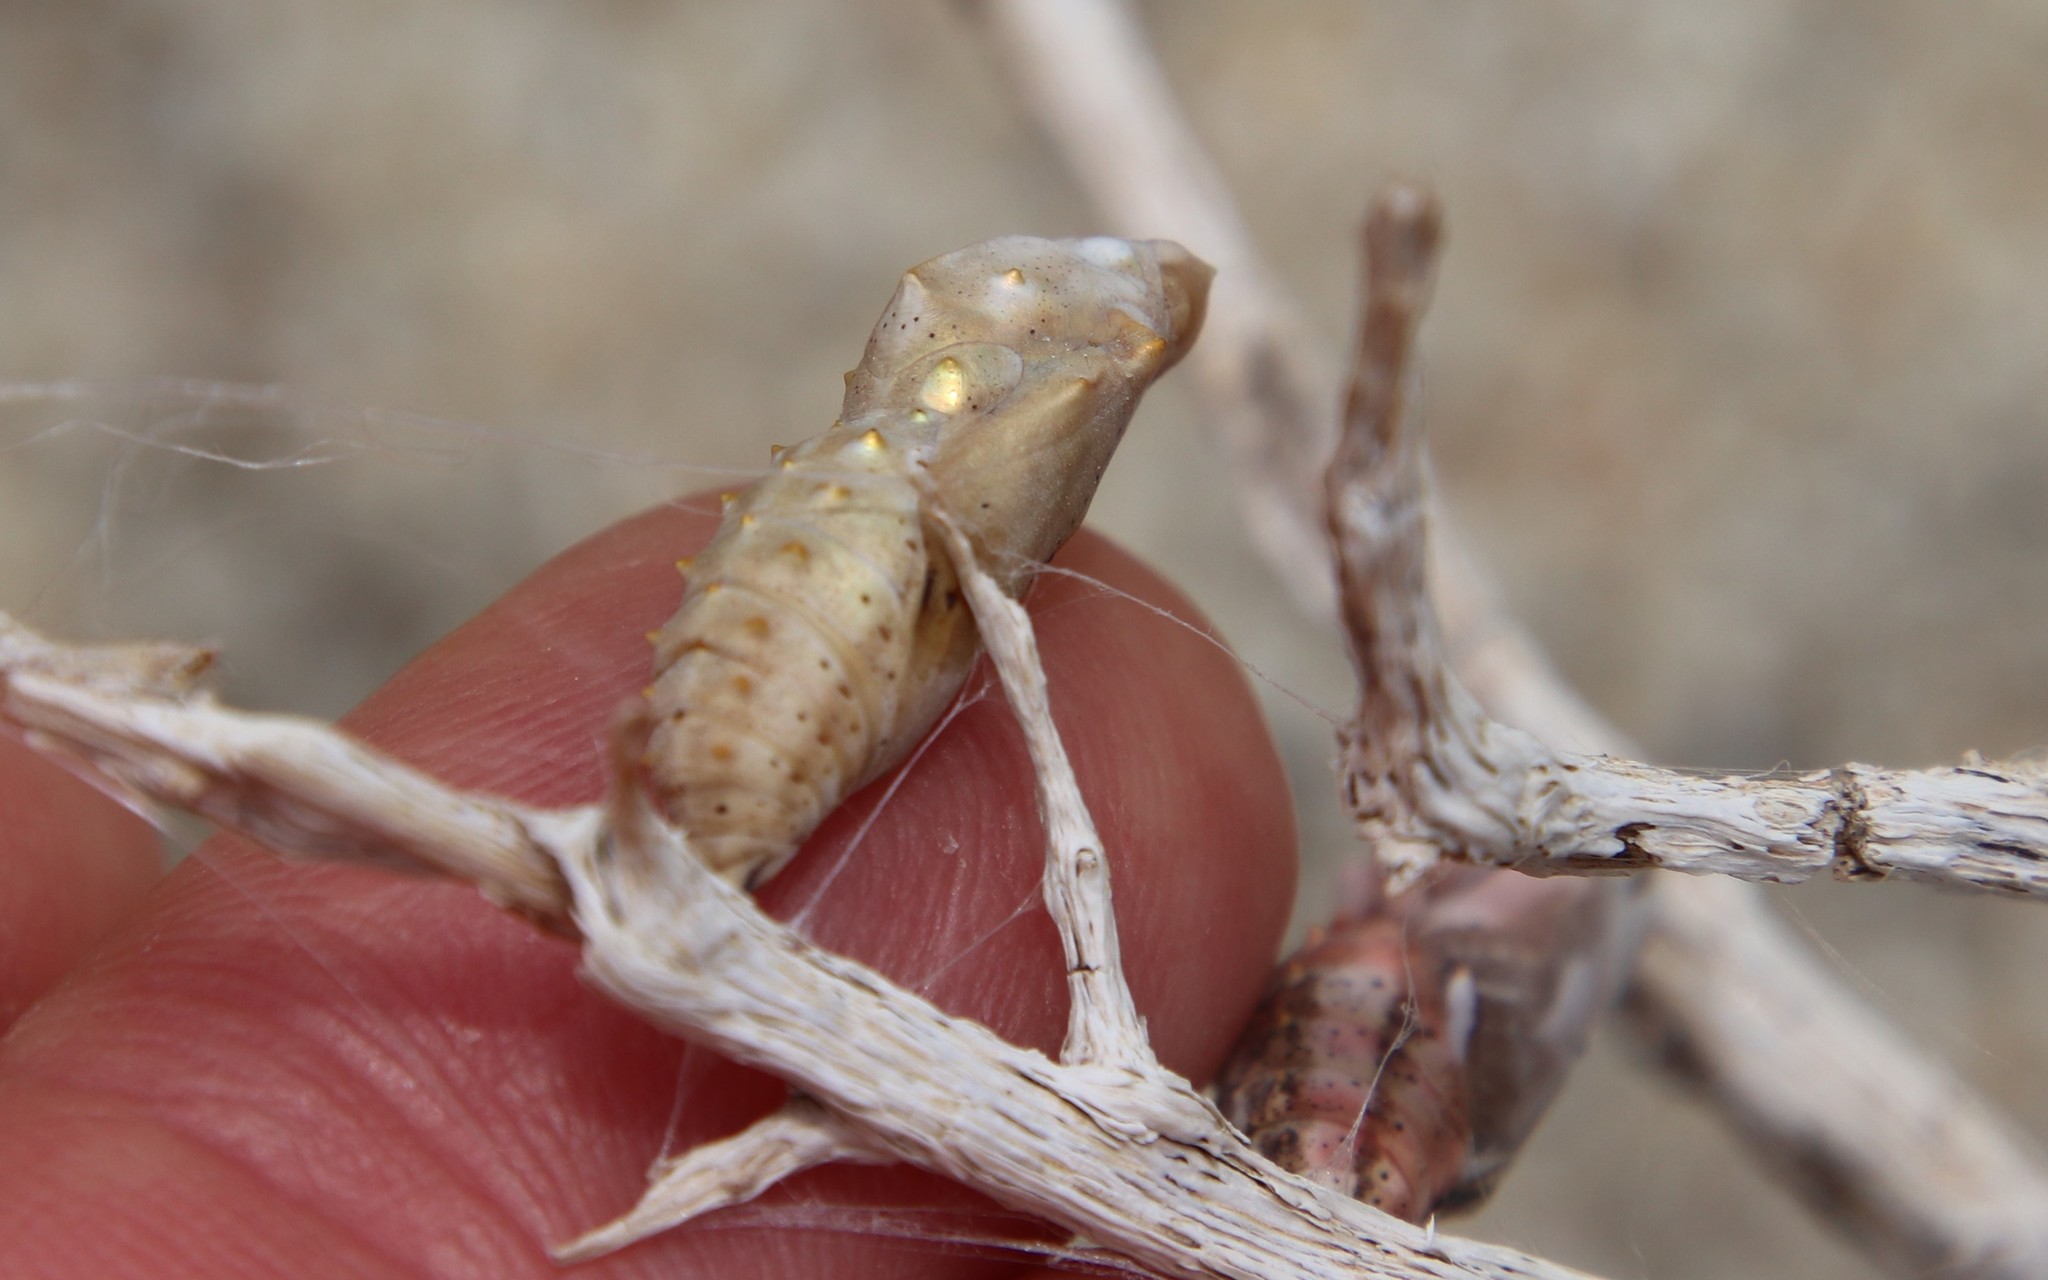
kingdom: Animalia
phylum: Arthropoda
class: Insecta
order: Lepidoptera
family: Nymphalidae
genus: Vanessa
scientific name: Vanessa cardui
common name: Painted lady
